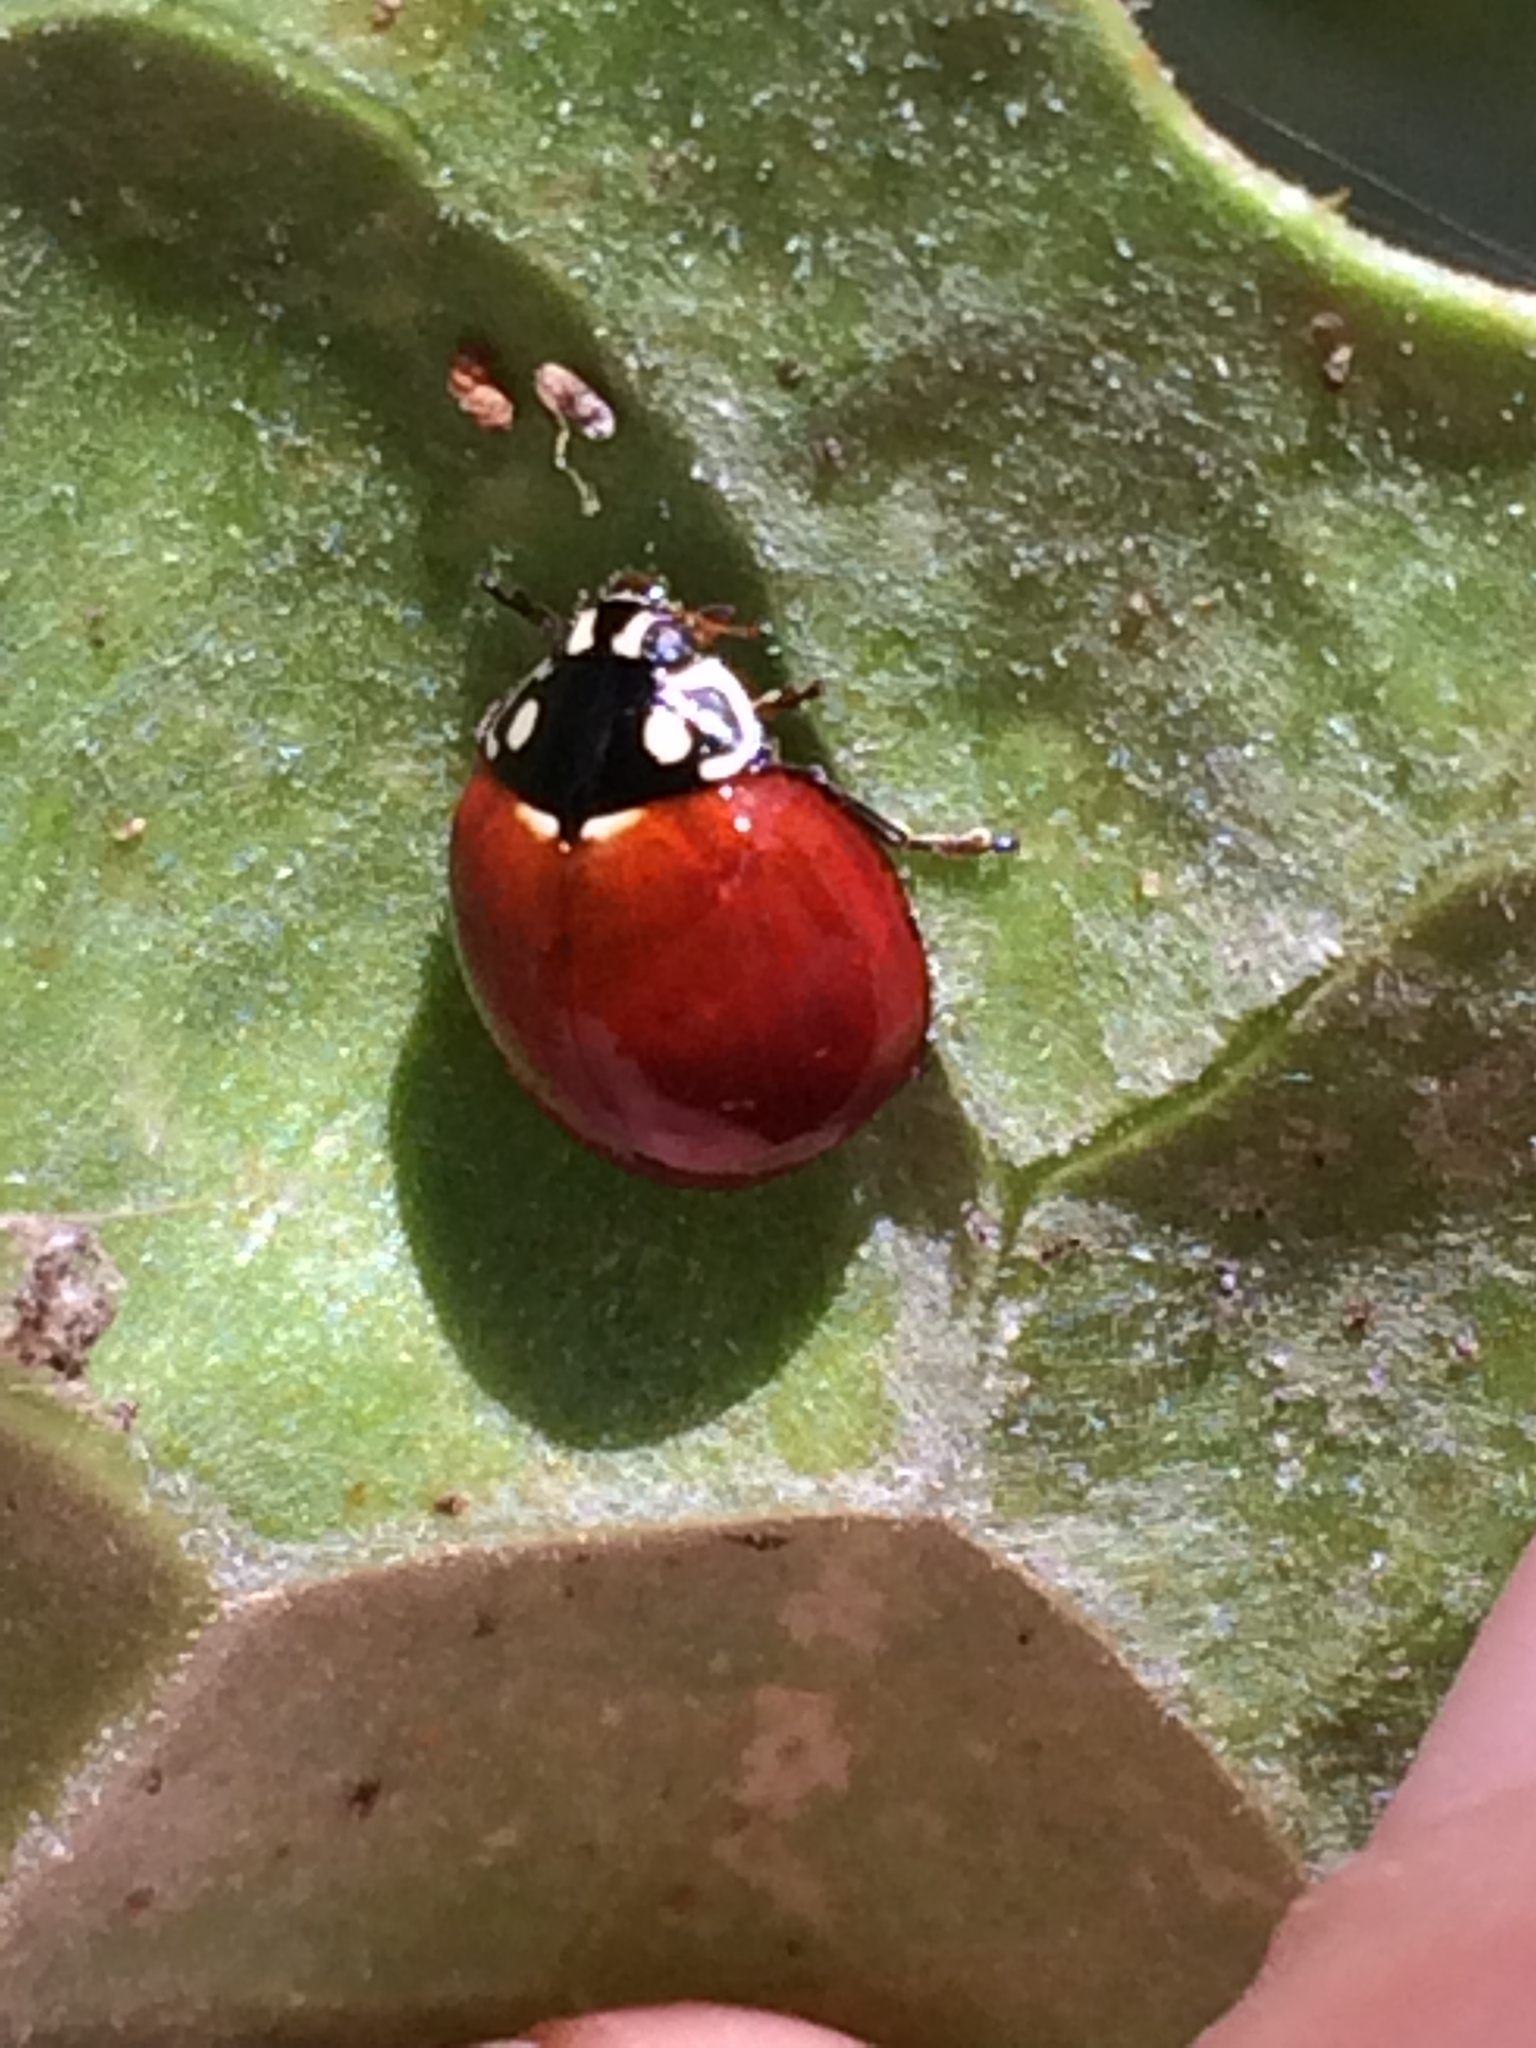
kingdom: Animalia
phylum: Arthropoda
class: Insecta
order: Coleoptera
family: Coccinellidae
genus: Cycloneda
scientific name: Cycloneda sanguinea
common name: Ladybird beetle
